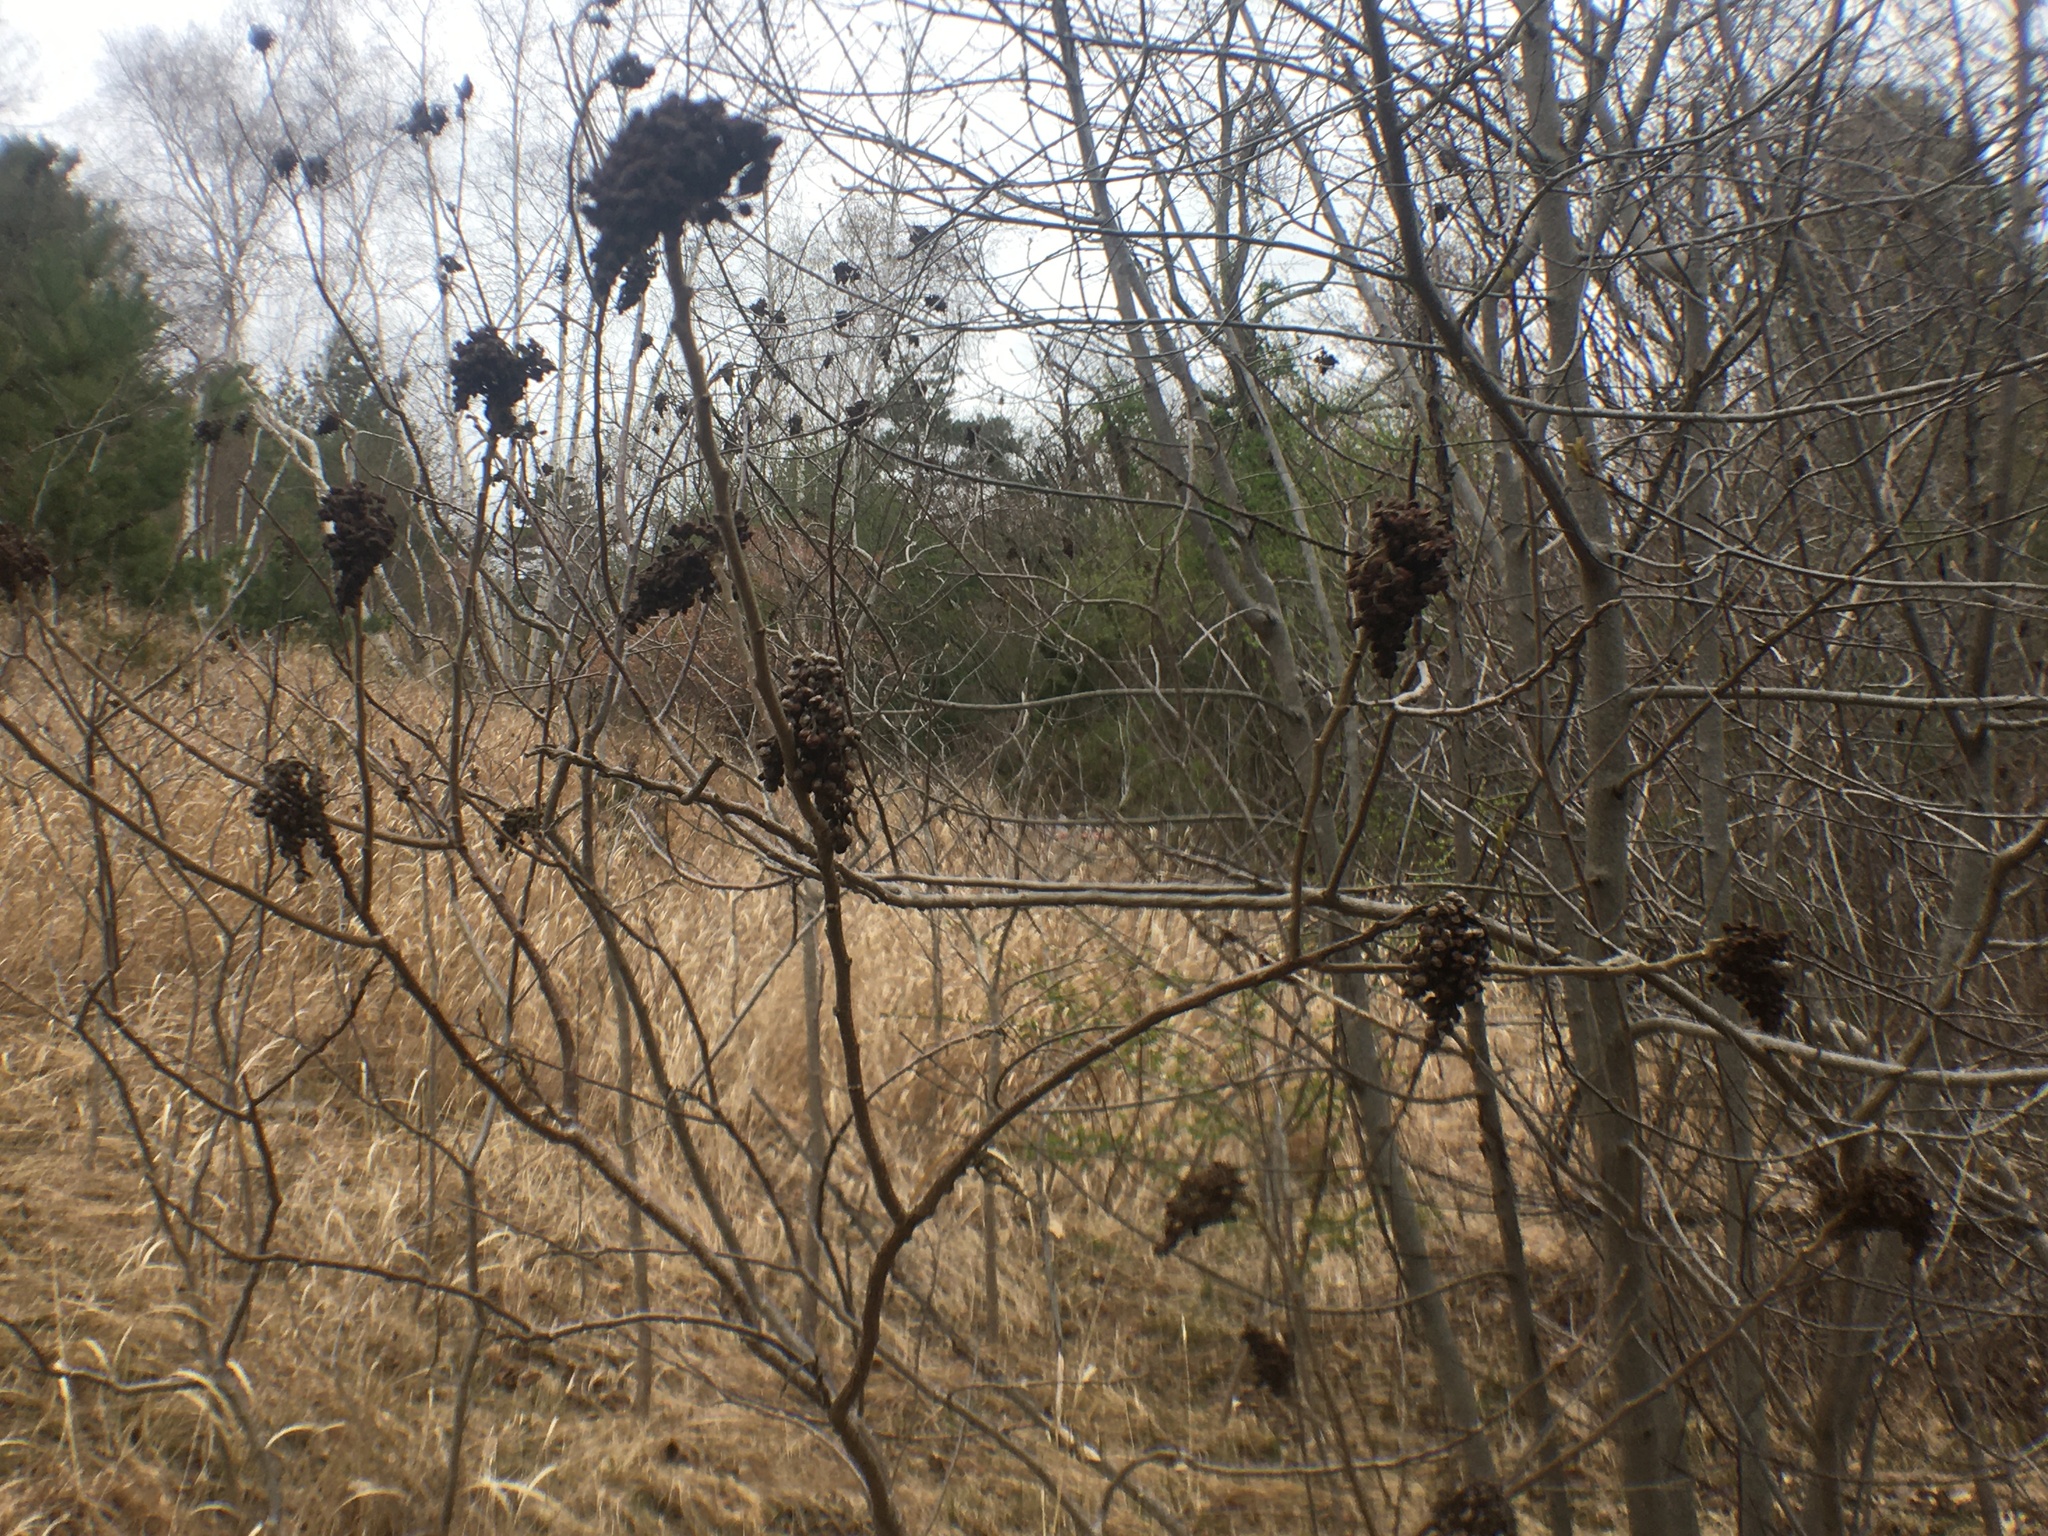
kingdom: Plantae
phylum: Tracheophyta
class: Magnoliopsida
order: Sapindales
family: Anacardiaceae
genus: Rhus
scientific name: Rhus copallina
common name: Shining sumac
